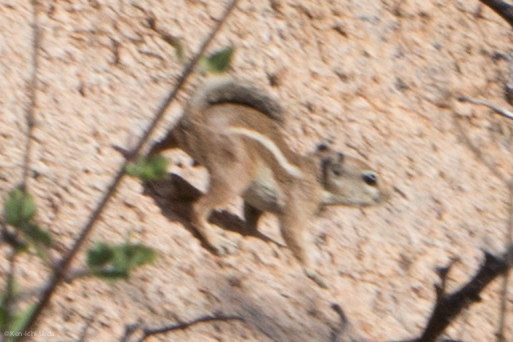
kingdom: Animalia
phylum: Chordata
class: Mammalia
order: Rodentia
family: Sciuridae
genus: Ammospermophilus
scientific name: Ammospermophilus leucurus
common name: White-tailed antelope squirrel
